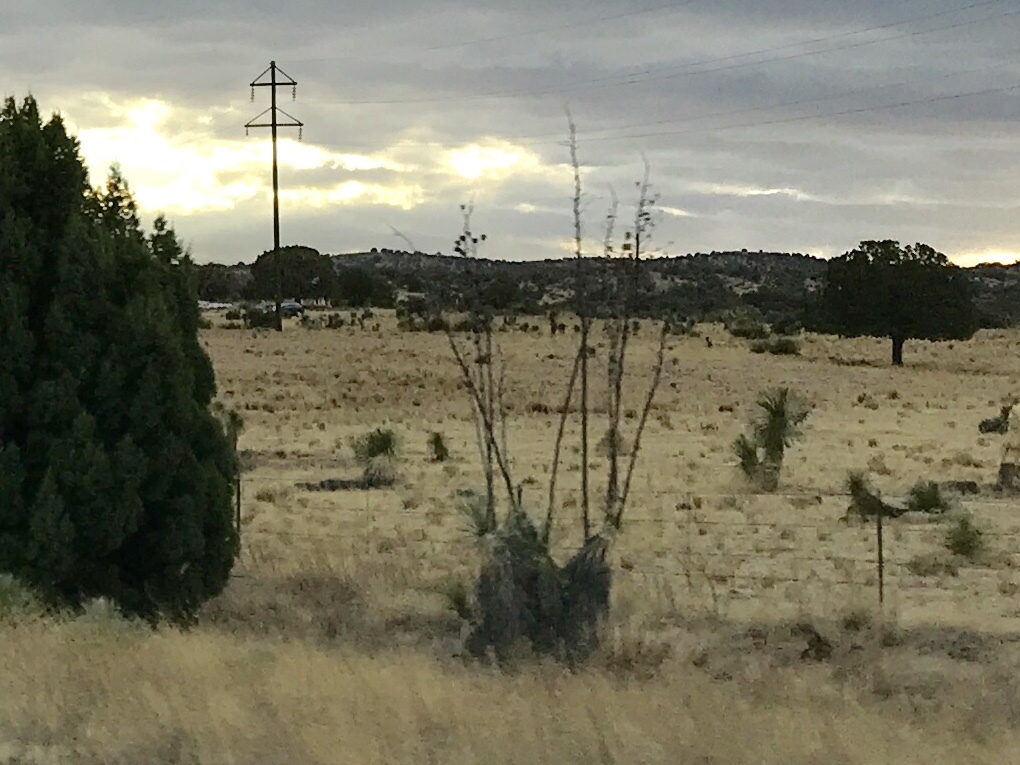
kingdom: Plantae
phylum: Tracheophyta
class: Liliopsida
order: Asparagales
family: Asparagaceae
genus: Yucca
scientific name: Yucca elata
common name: Palmella
